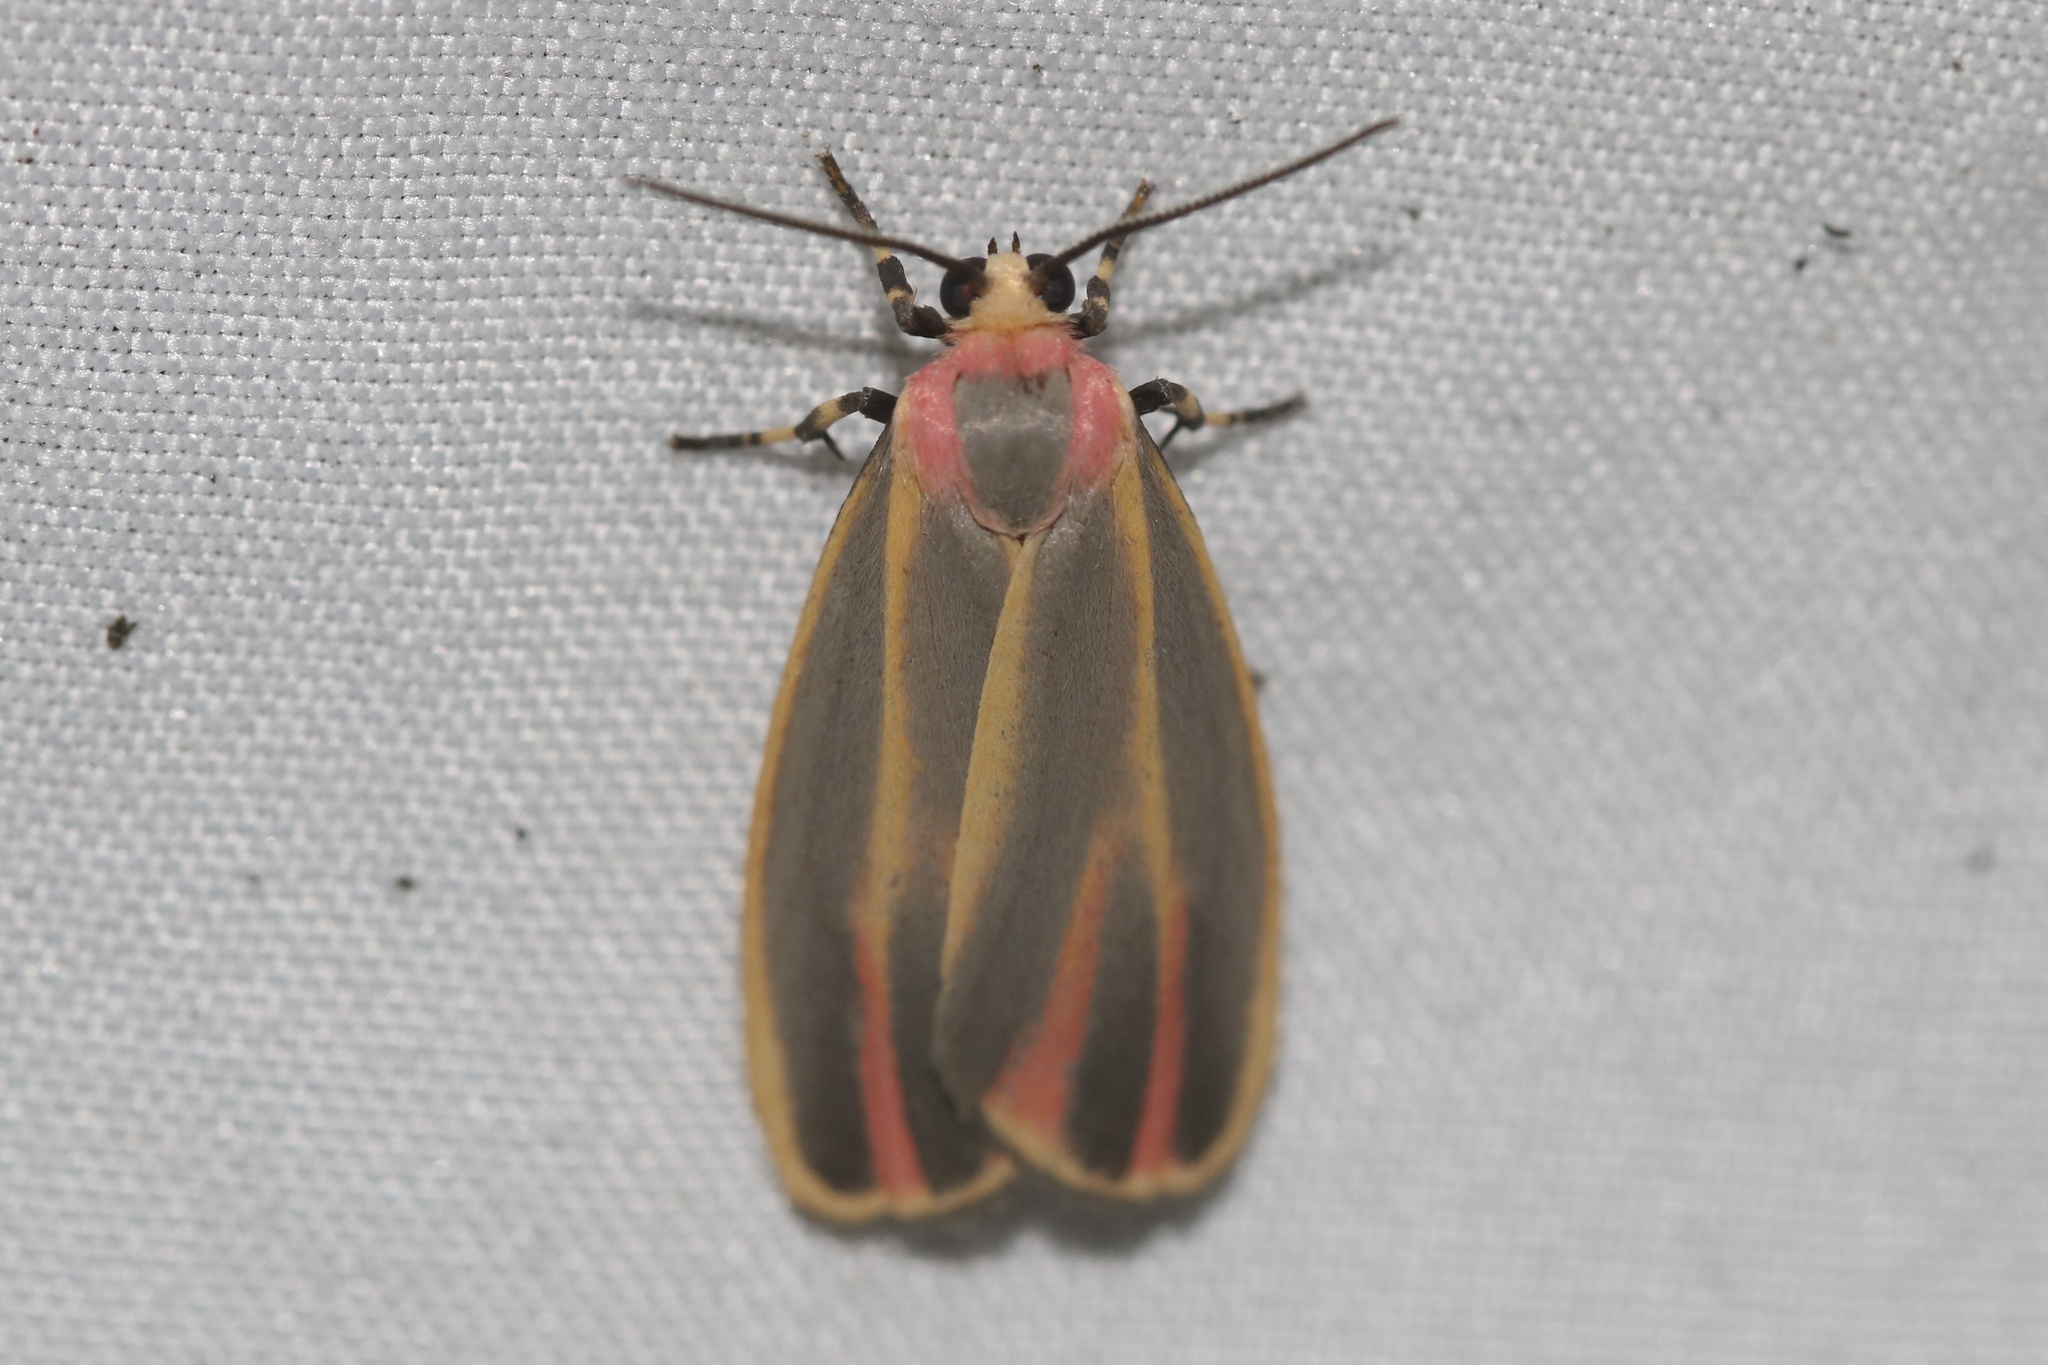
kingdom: Animalia
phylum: Arthropoda
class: Insecta
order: Lepidoptera
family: Erebidae
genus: Hypoprepia
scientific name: Hypoprepia fucosa
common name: Painted lichen moth
